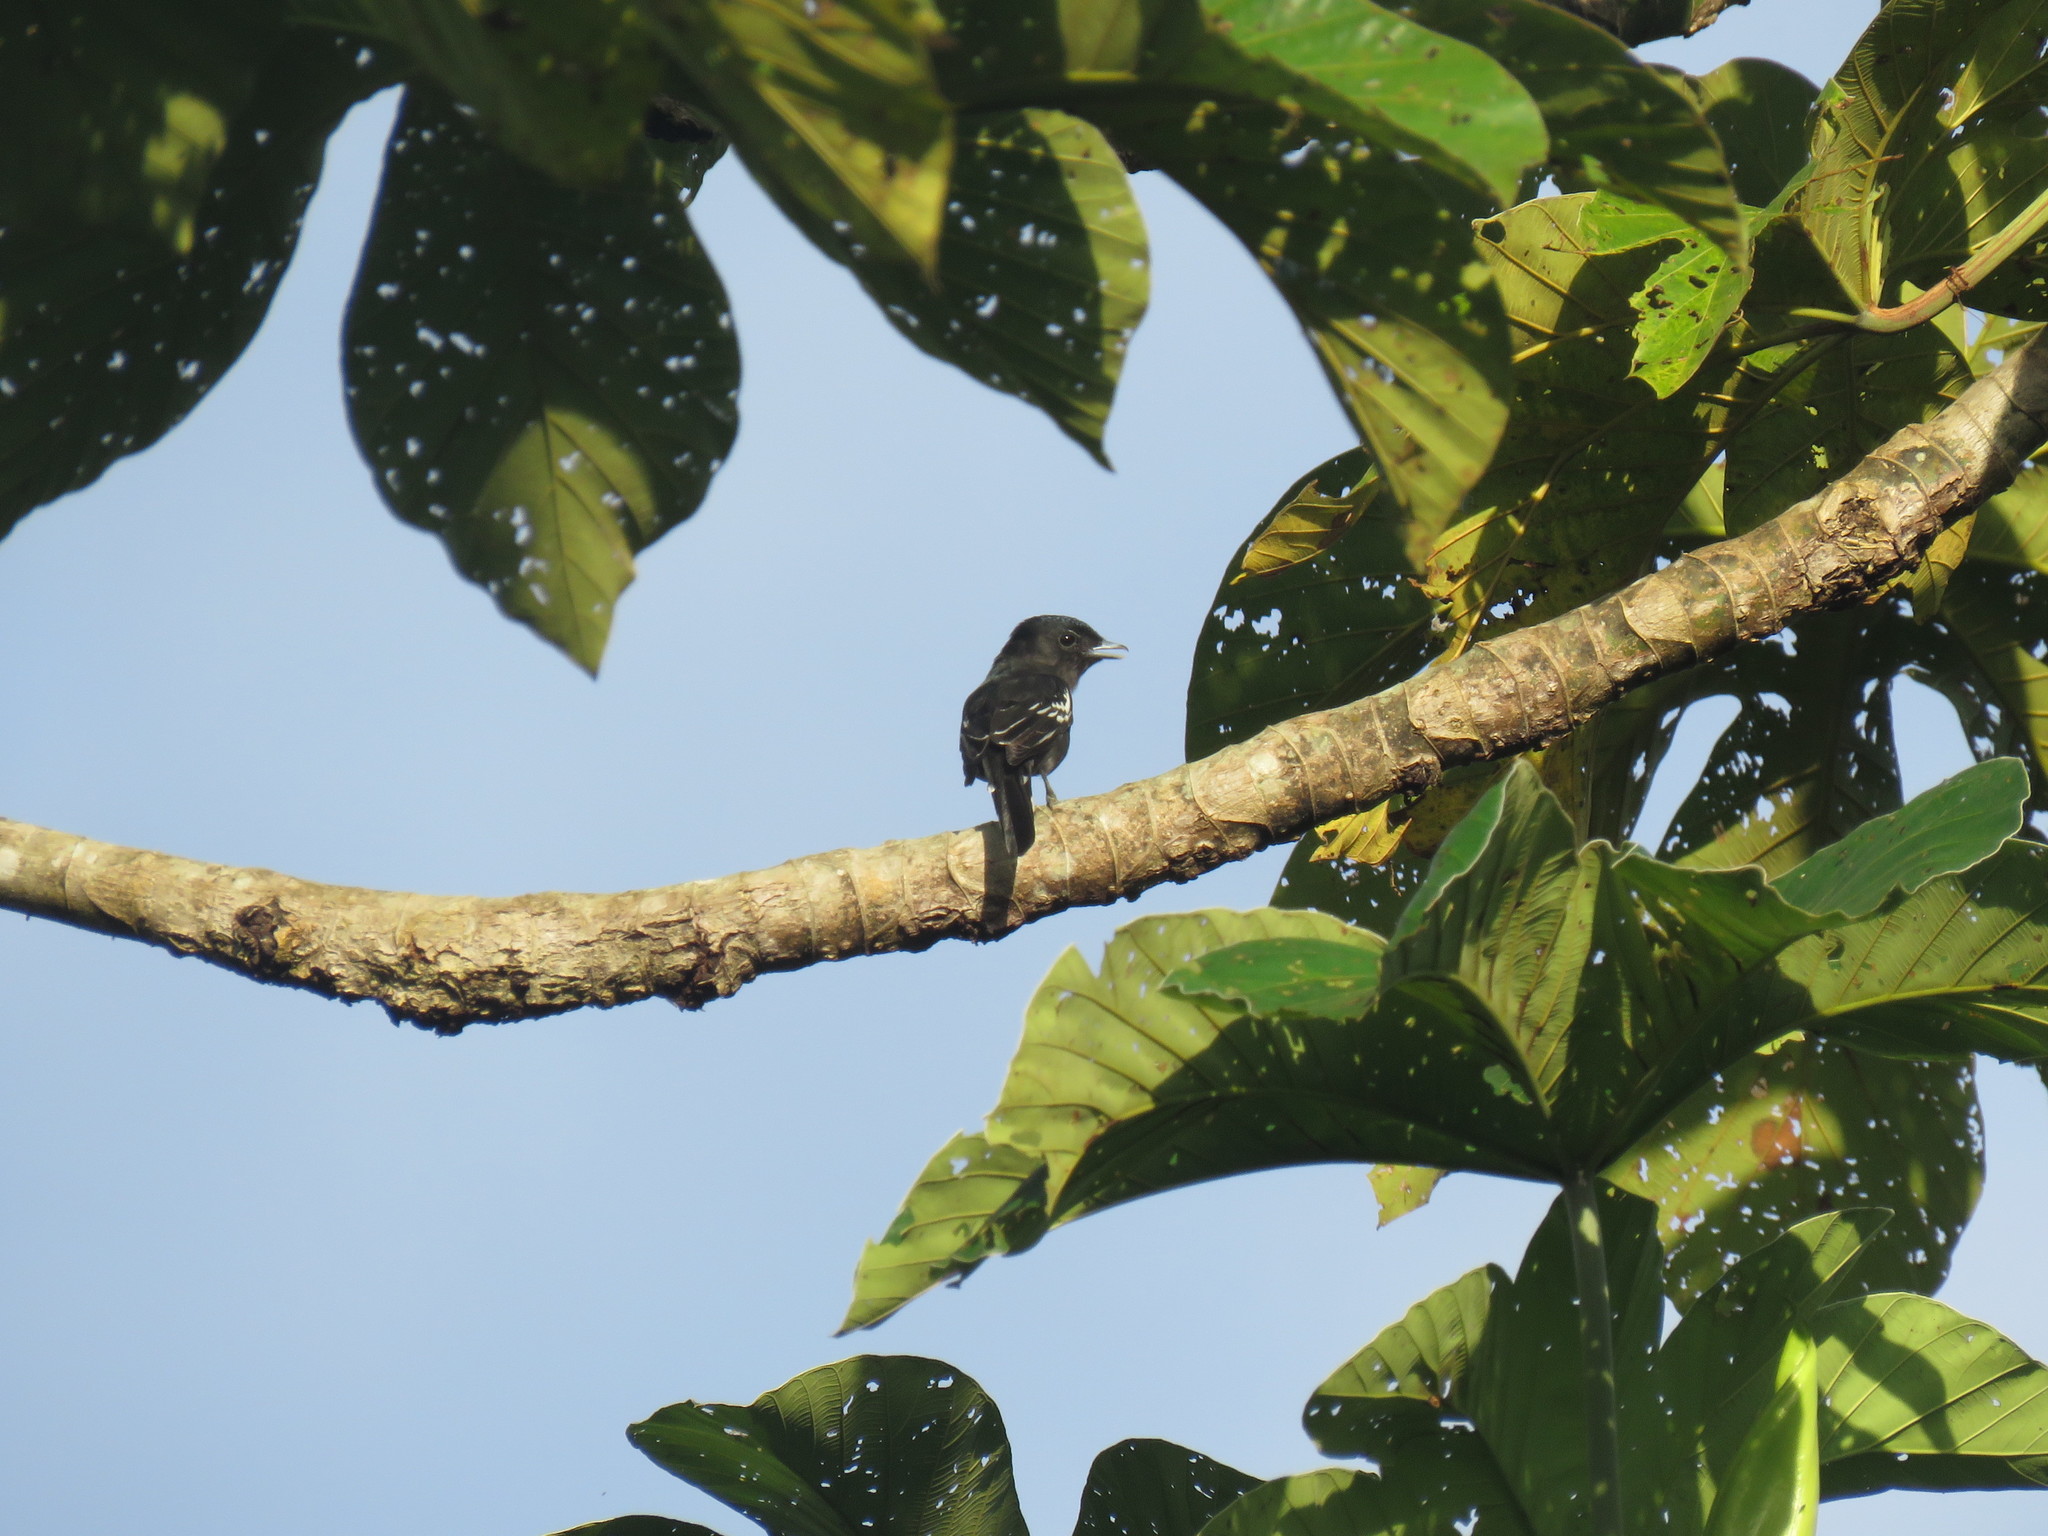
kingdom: Animalia
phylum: Chordata
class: Aves
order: Passeriformes
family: Cotingidae
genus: Pachyramphus
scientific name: Pachyramphus polychopterus
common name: White-winged becard
